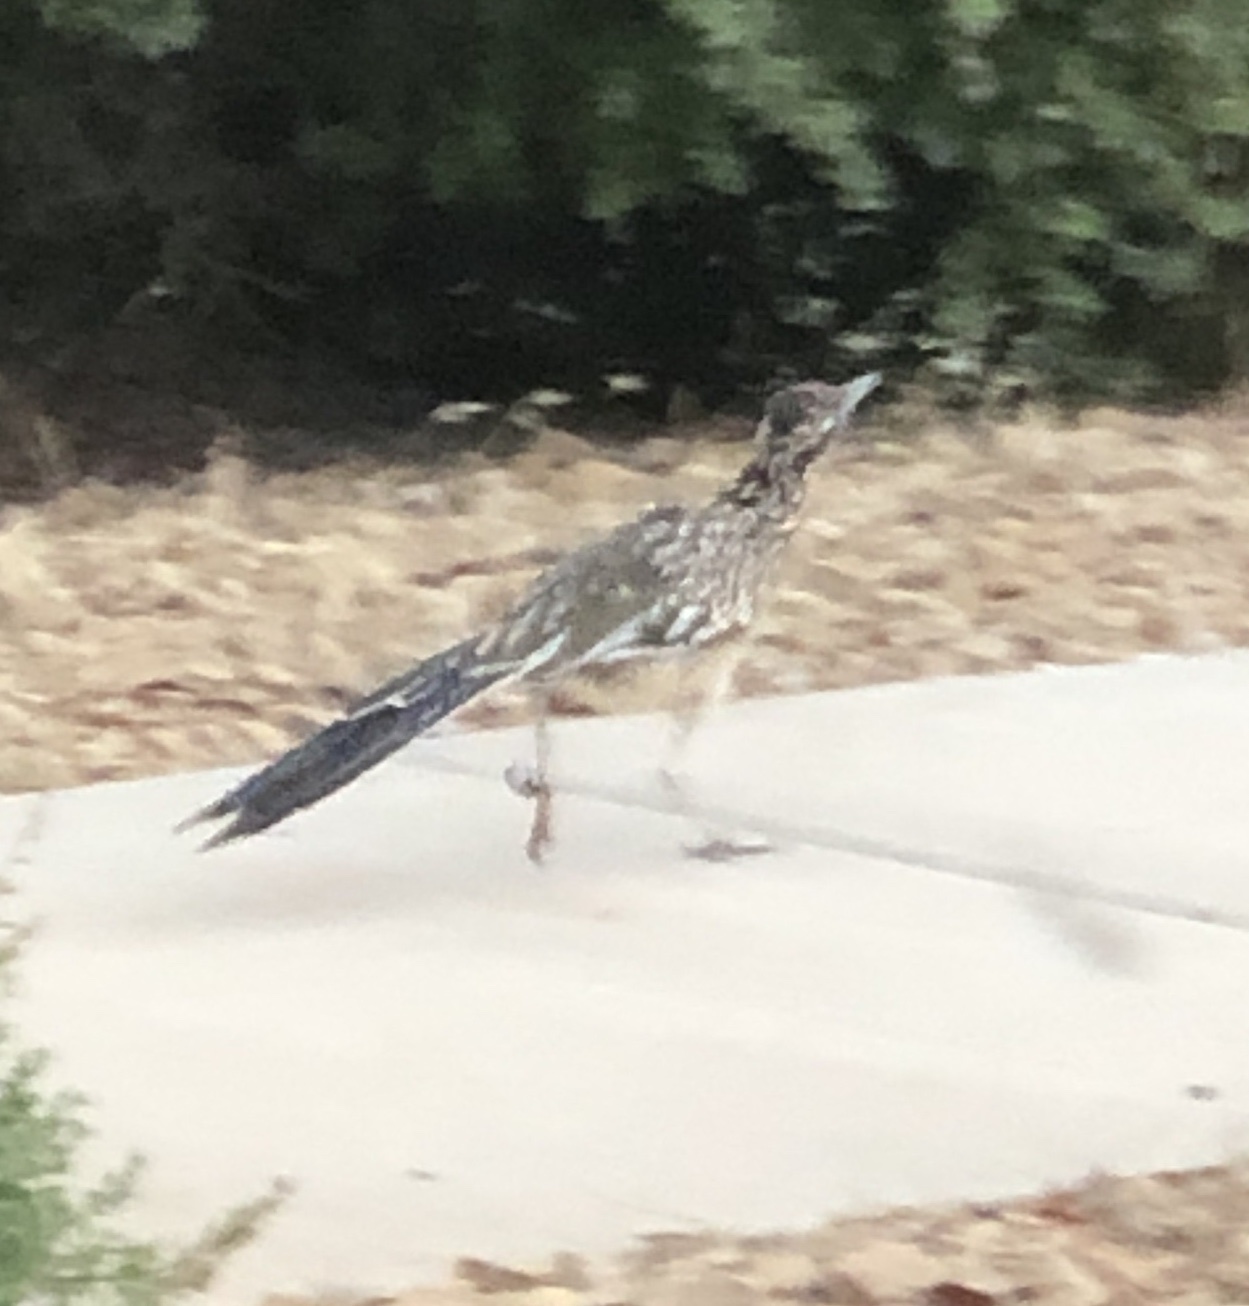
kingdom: Animalia
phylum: Chordata
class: Aves
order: Cuculiformes
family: Cuculidae
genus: Geococcyx
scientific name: Geococcyx californianus
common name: Greater roadrunner
